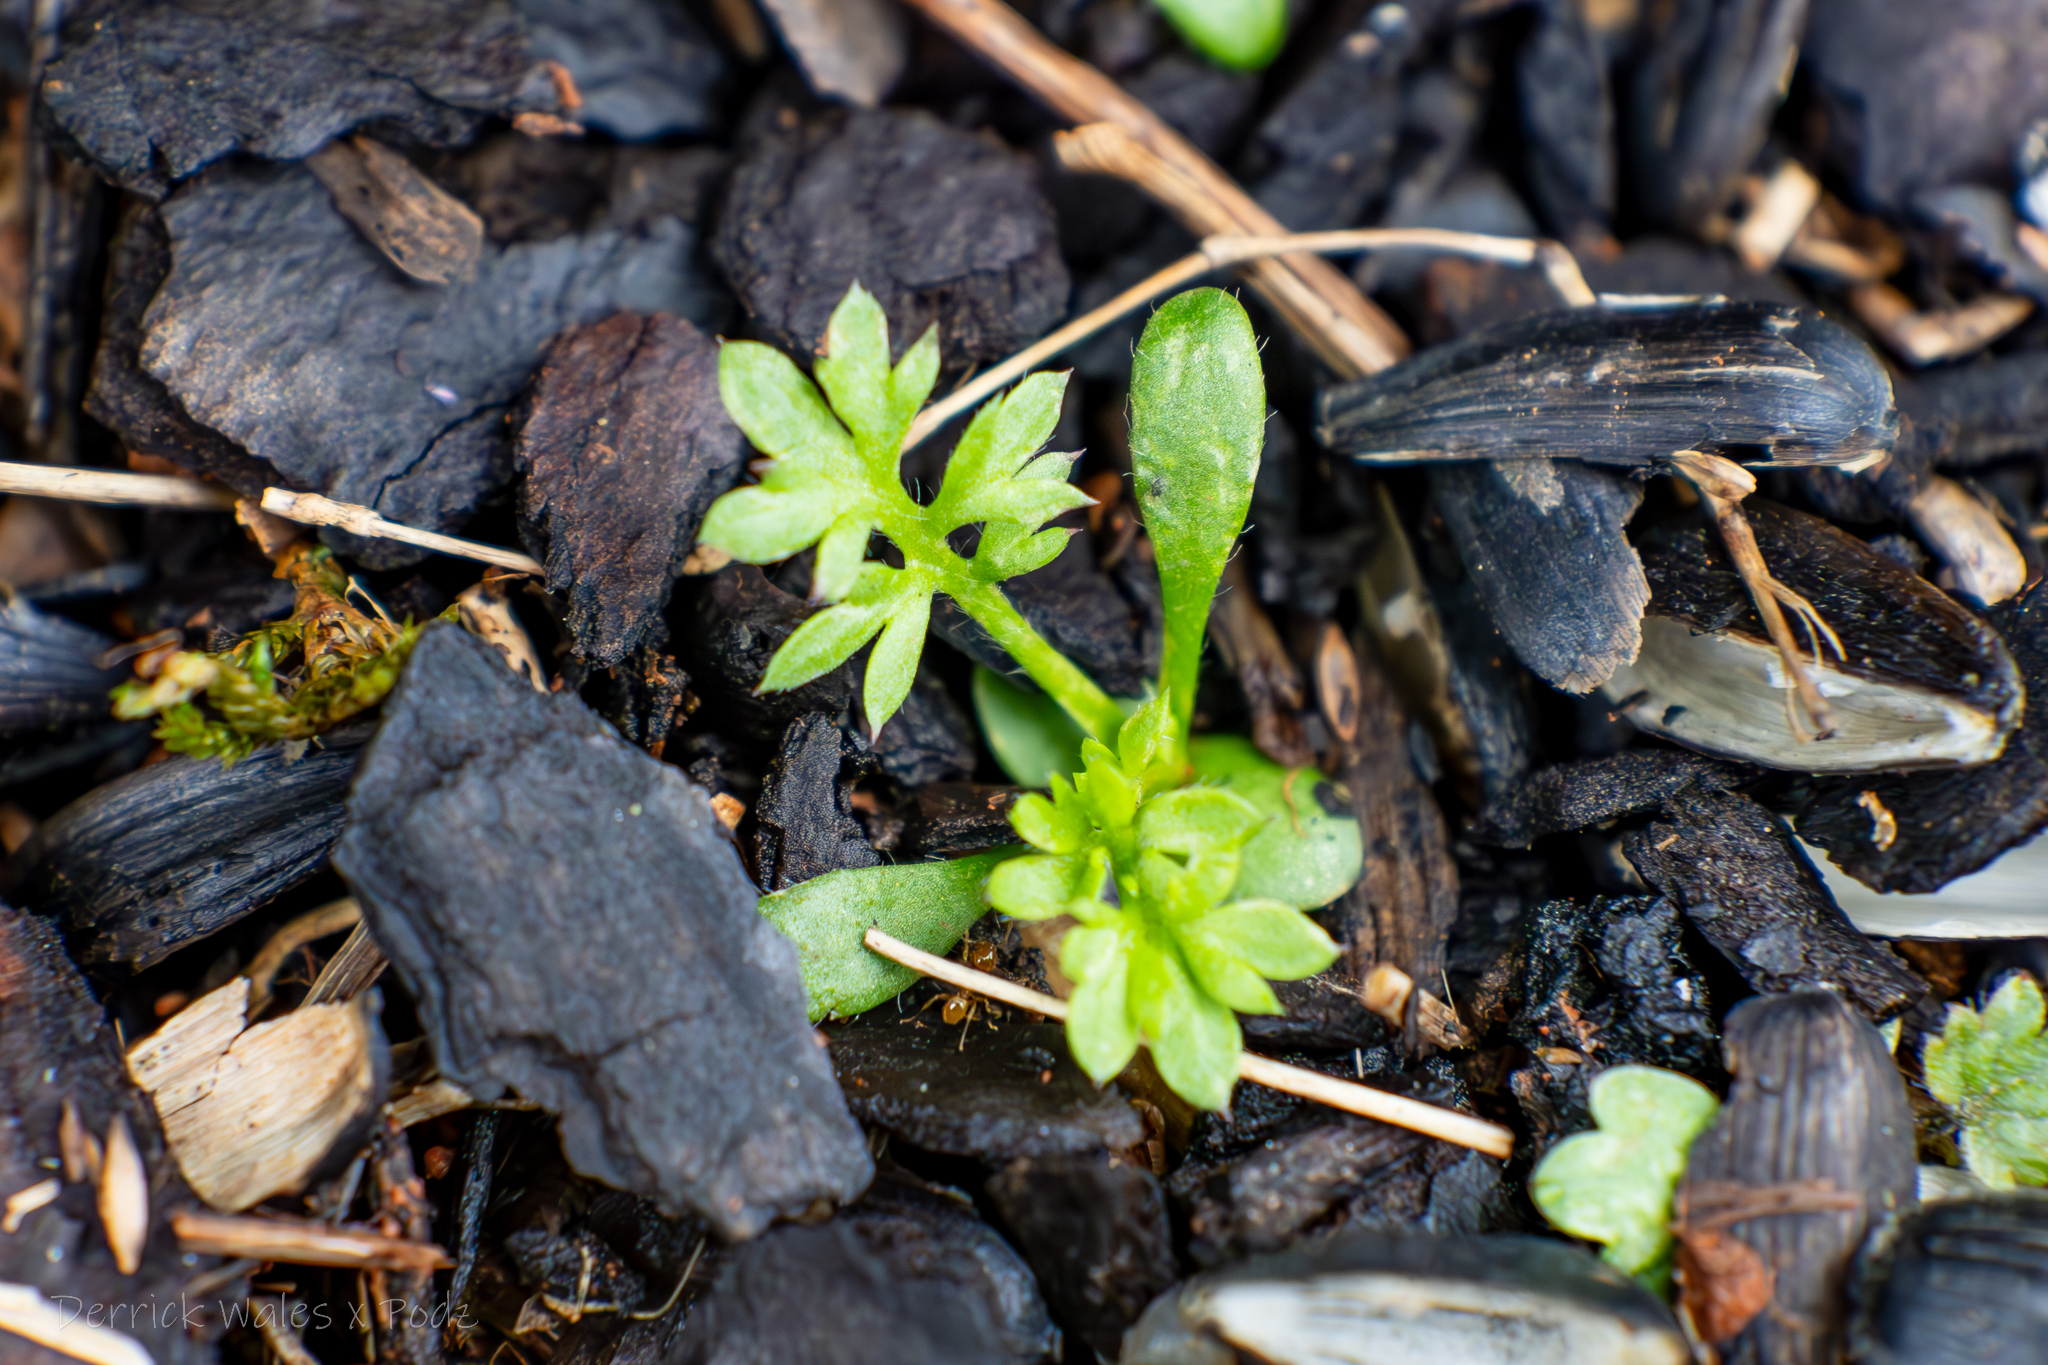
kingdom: Plantae
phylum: Tracheophyta
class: Magnoliopsida
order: Asterales
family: Asteraceae
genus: Soliva
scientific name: Soliva sessilis
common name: Field burrweed
